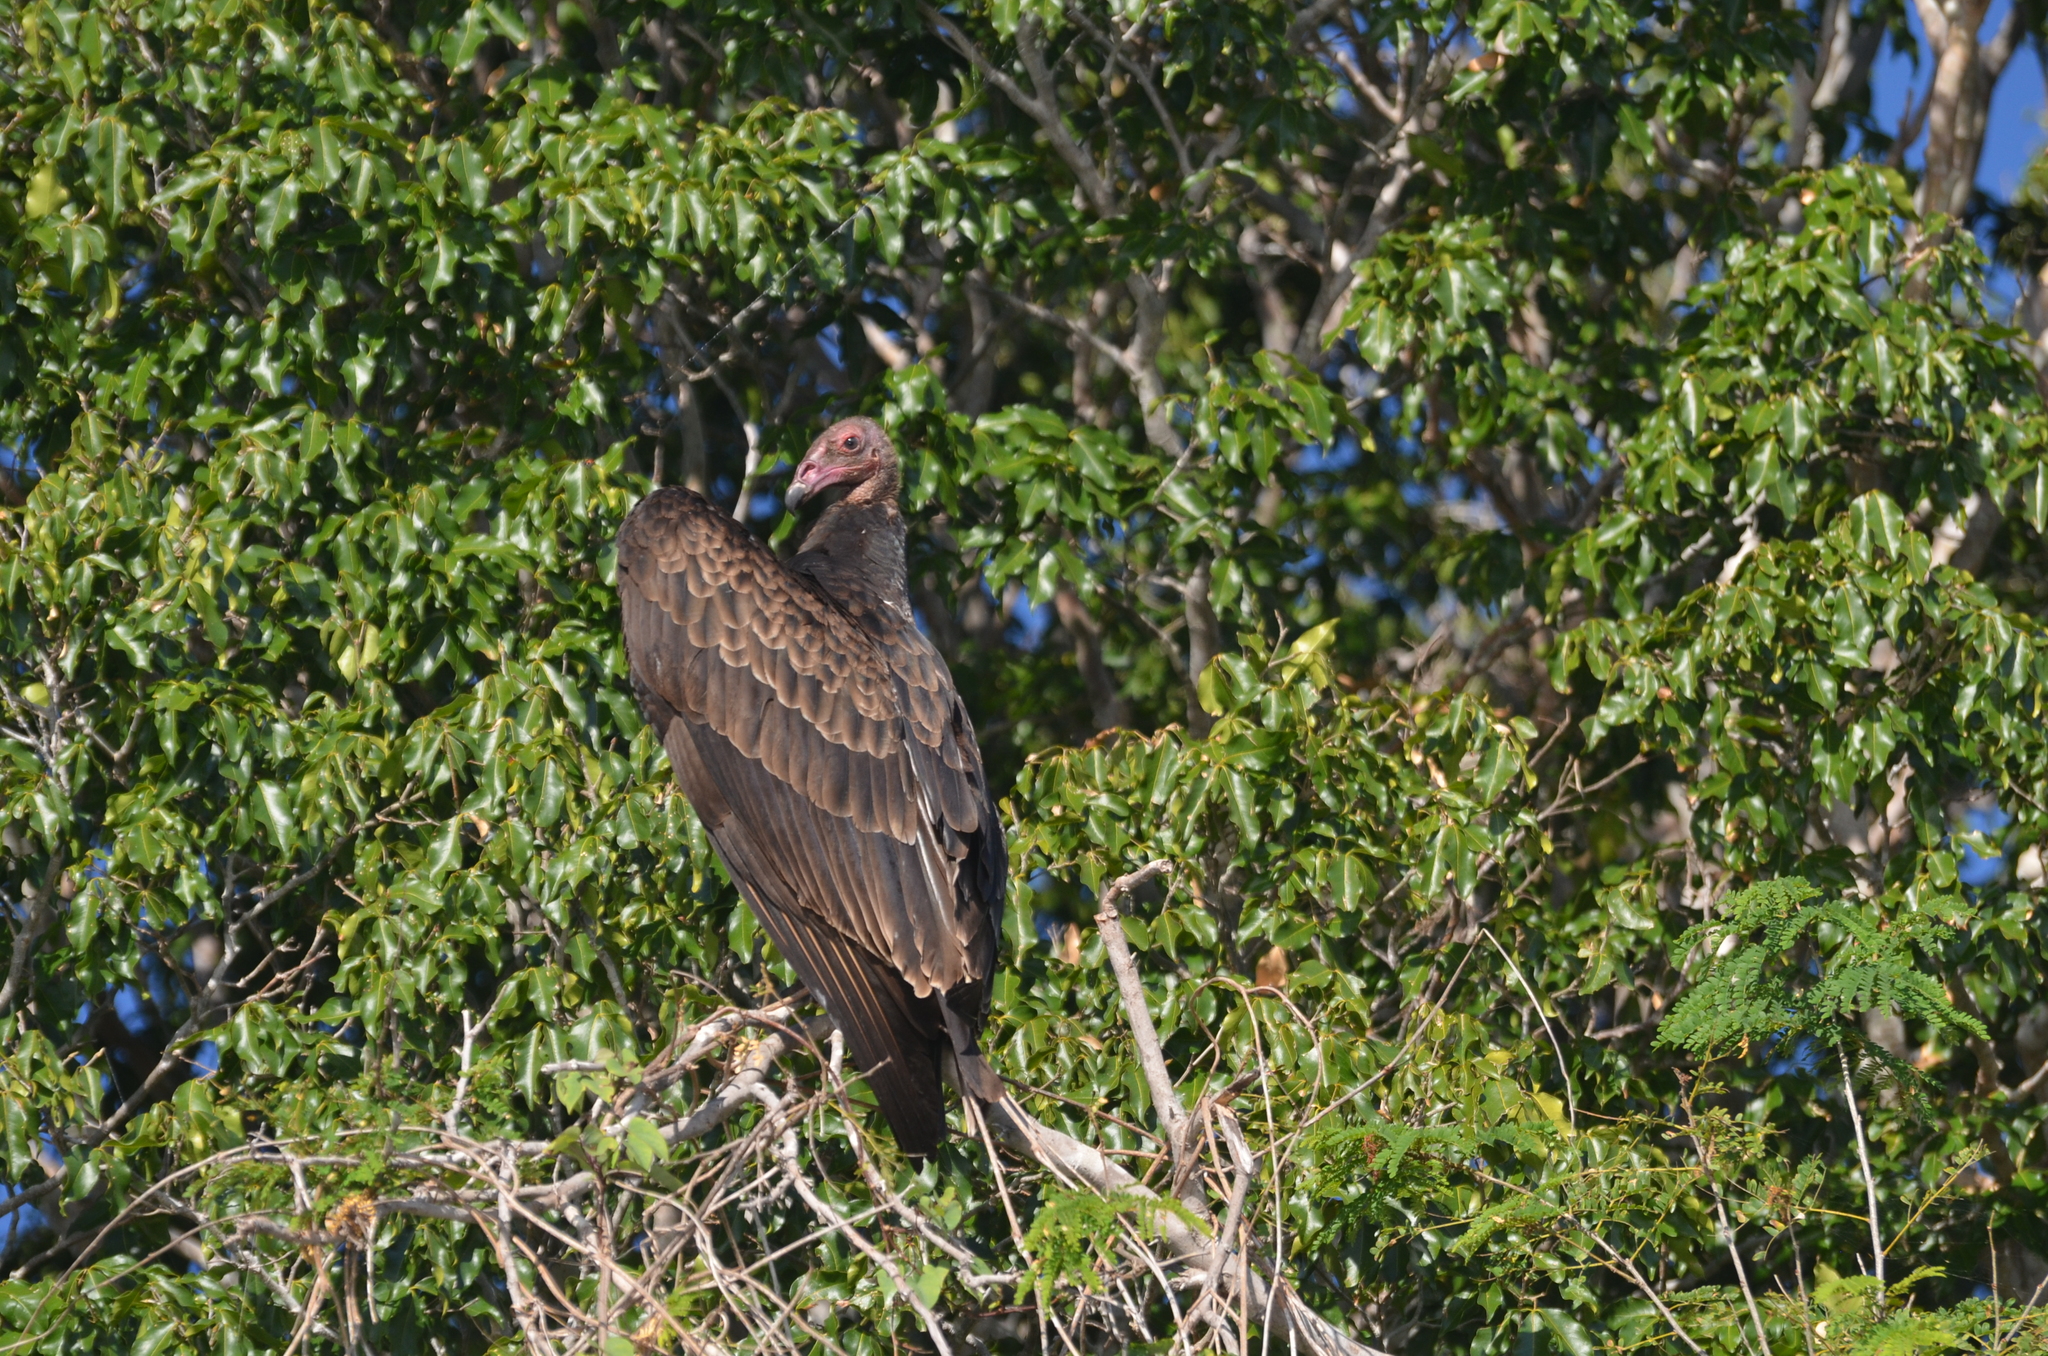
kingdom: Animalia
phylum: Chordata
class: Aves
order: Accipitriformes
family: Cathartidae
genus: Cathartes
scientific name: Cathartes aura
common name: Turkey vulture
